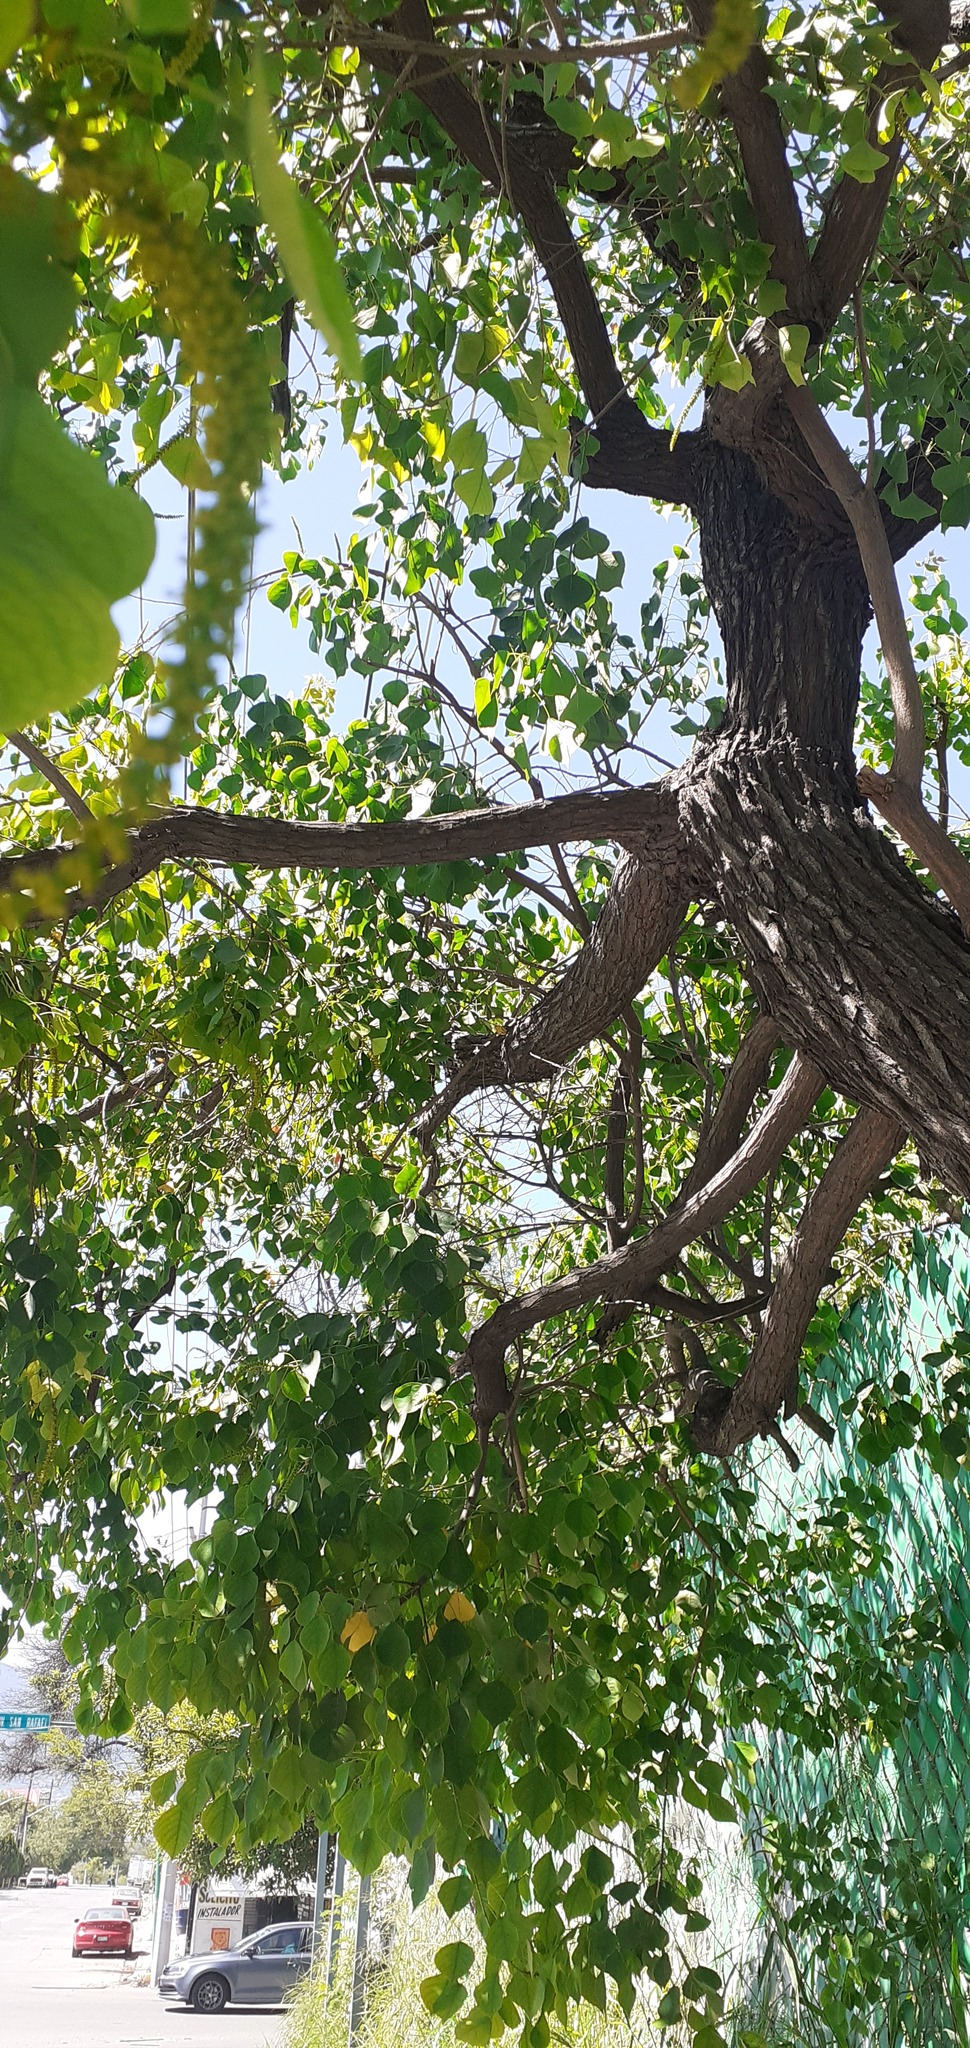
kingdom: Plantae
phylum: Tracheophyta
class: Magnoliopsida
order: Malpighiales
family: Euphorbiaceae
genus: Triadica
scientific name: Triadica sebifera
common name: Chinese tallow
